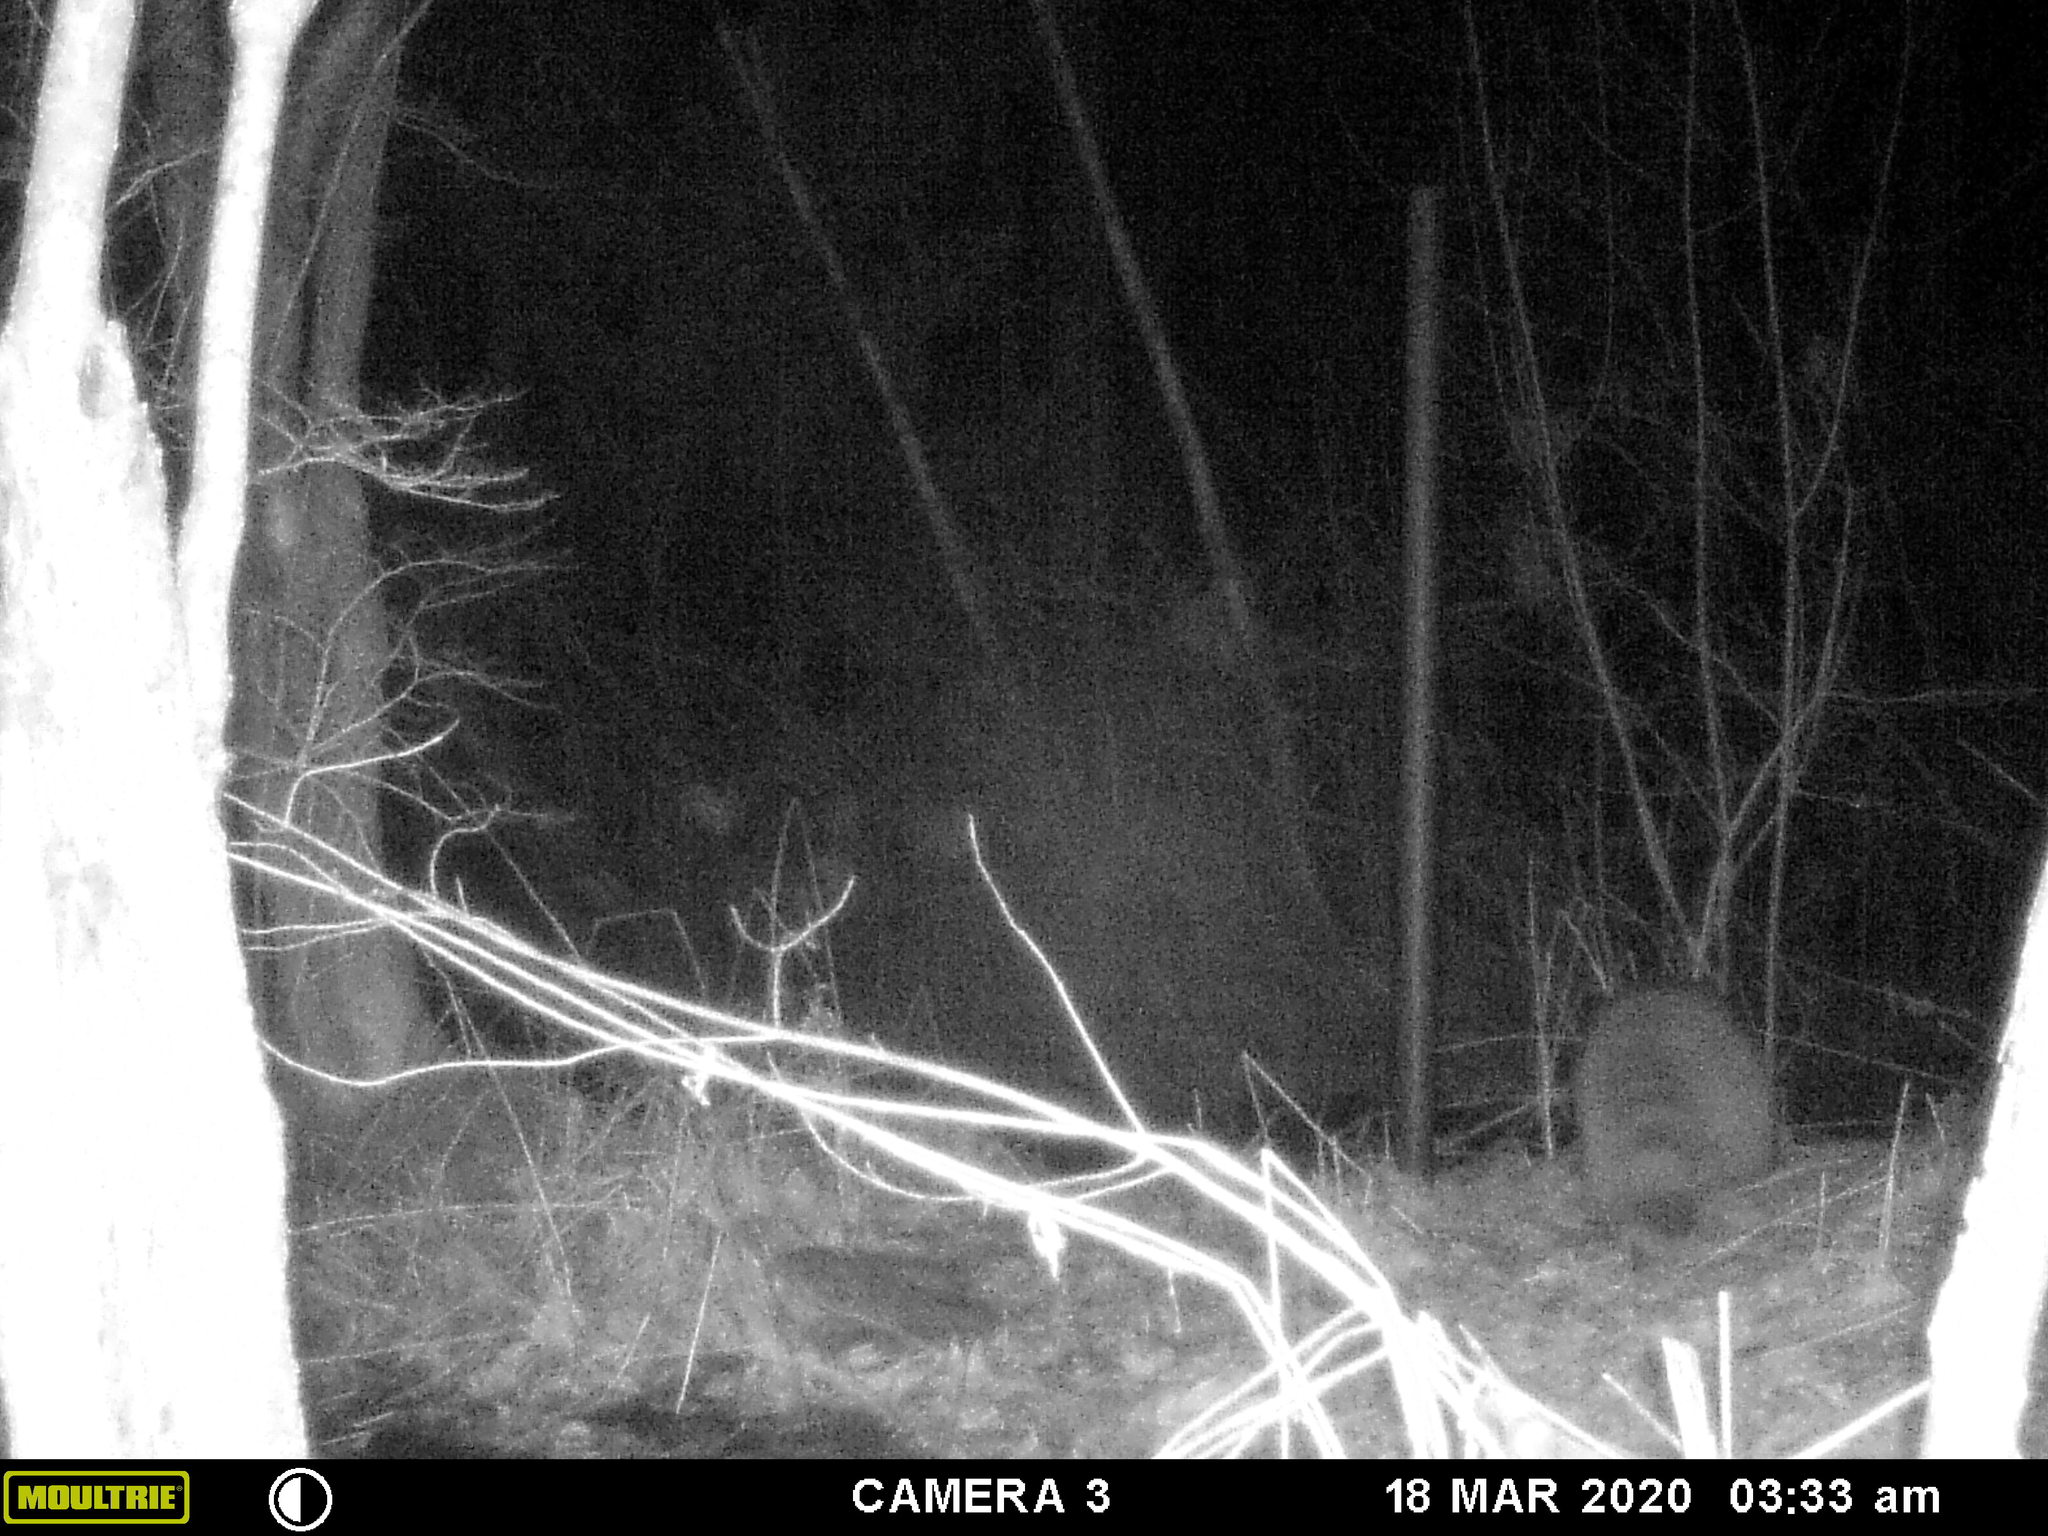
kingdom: Animalia
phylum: Chordata
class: Mammalia
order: Carnivora
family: Procyonidae
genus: Procyon
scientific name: Procyon lotor
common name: Raccoon
